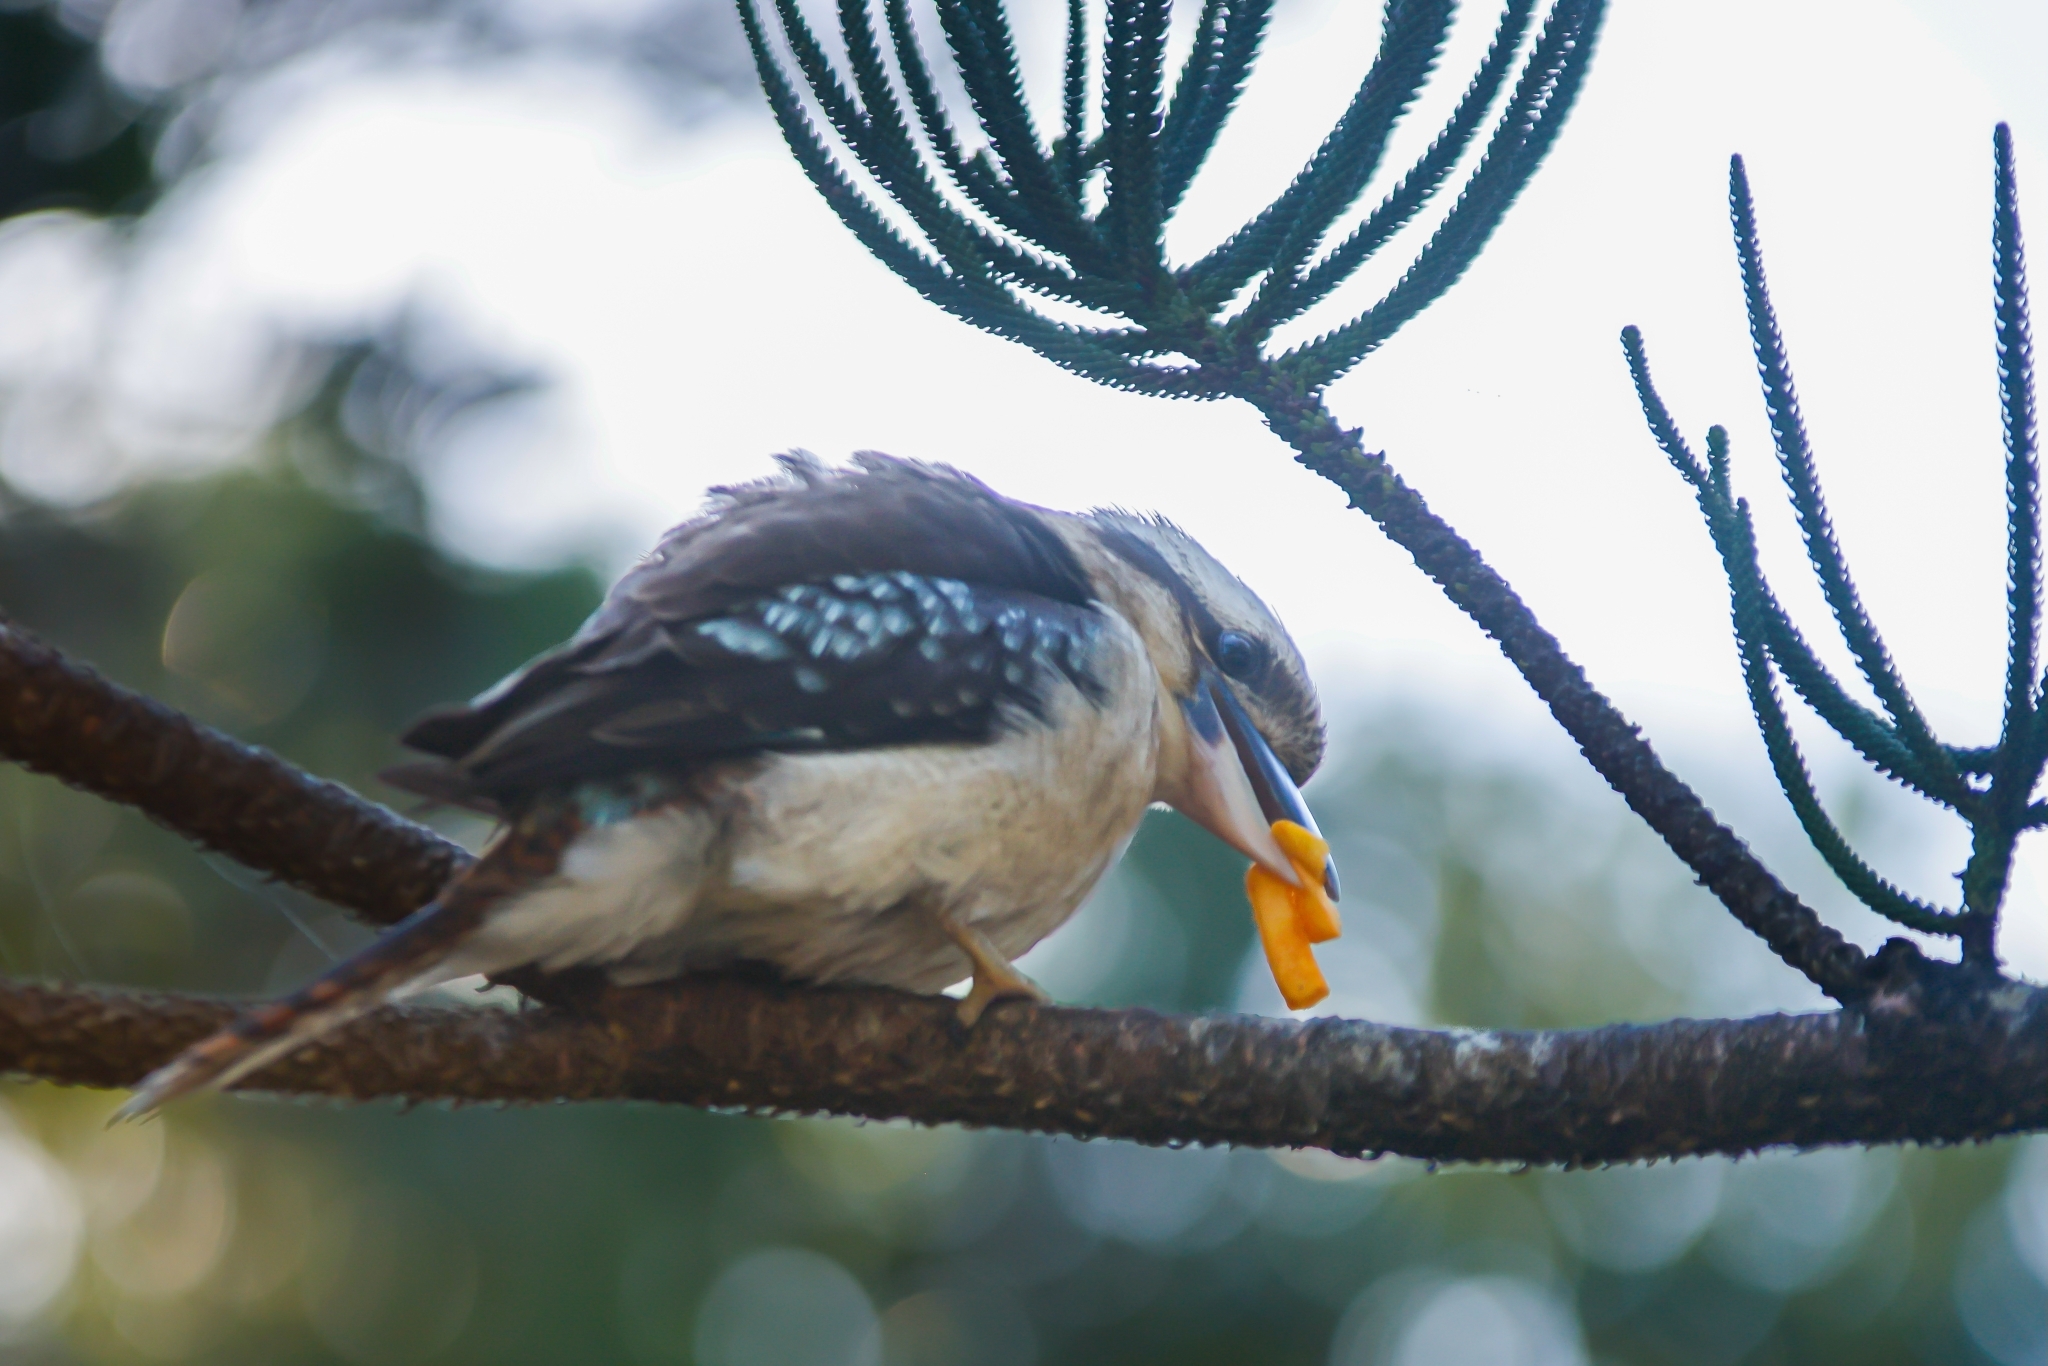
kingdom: Animalia
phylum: Chordata
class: Aves
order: Coraciiformes
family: Alcedinidae
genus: Dacelo
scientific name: Dacelo novaeguineae
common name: Laughing kookaburra
